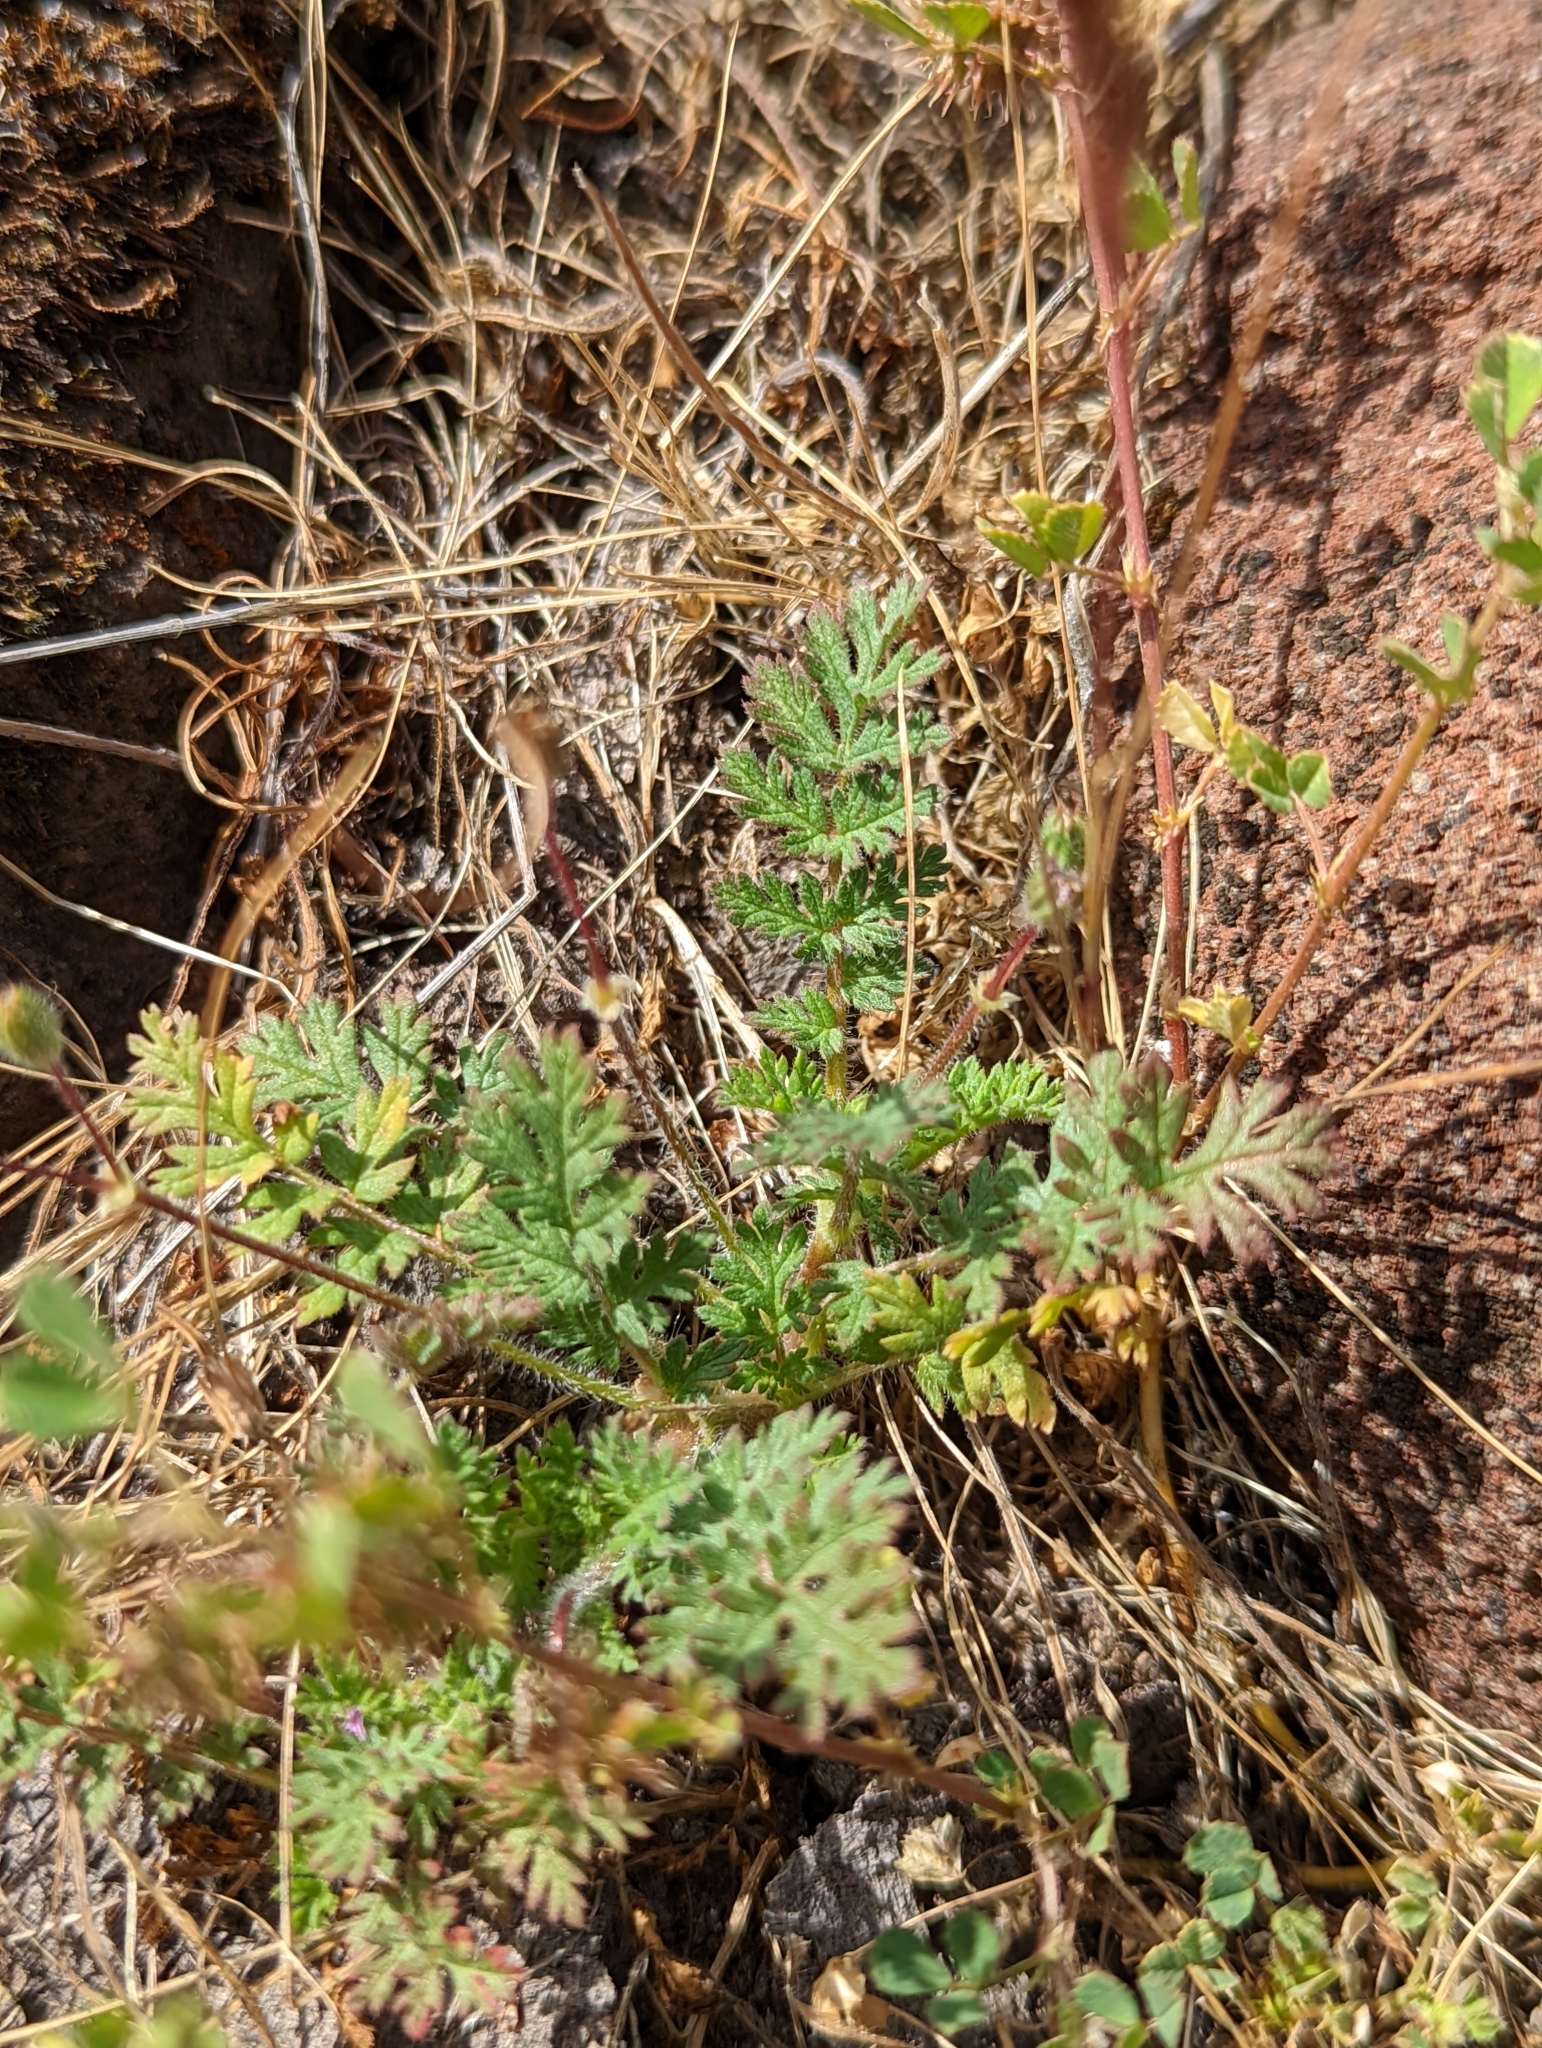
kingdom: Plantae
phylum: Tracheophyta
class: Magnoliopsida
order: Geraniales
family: Geraniaceae
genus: Erodium
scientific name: Erodium cicutarium
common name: Common stork's-bill
